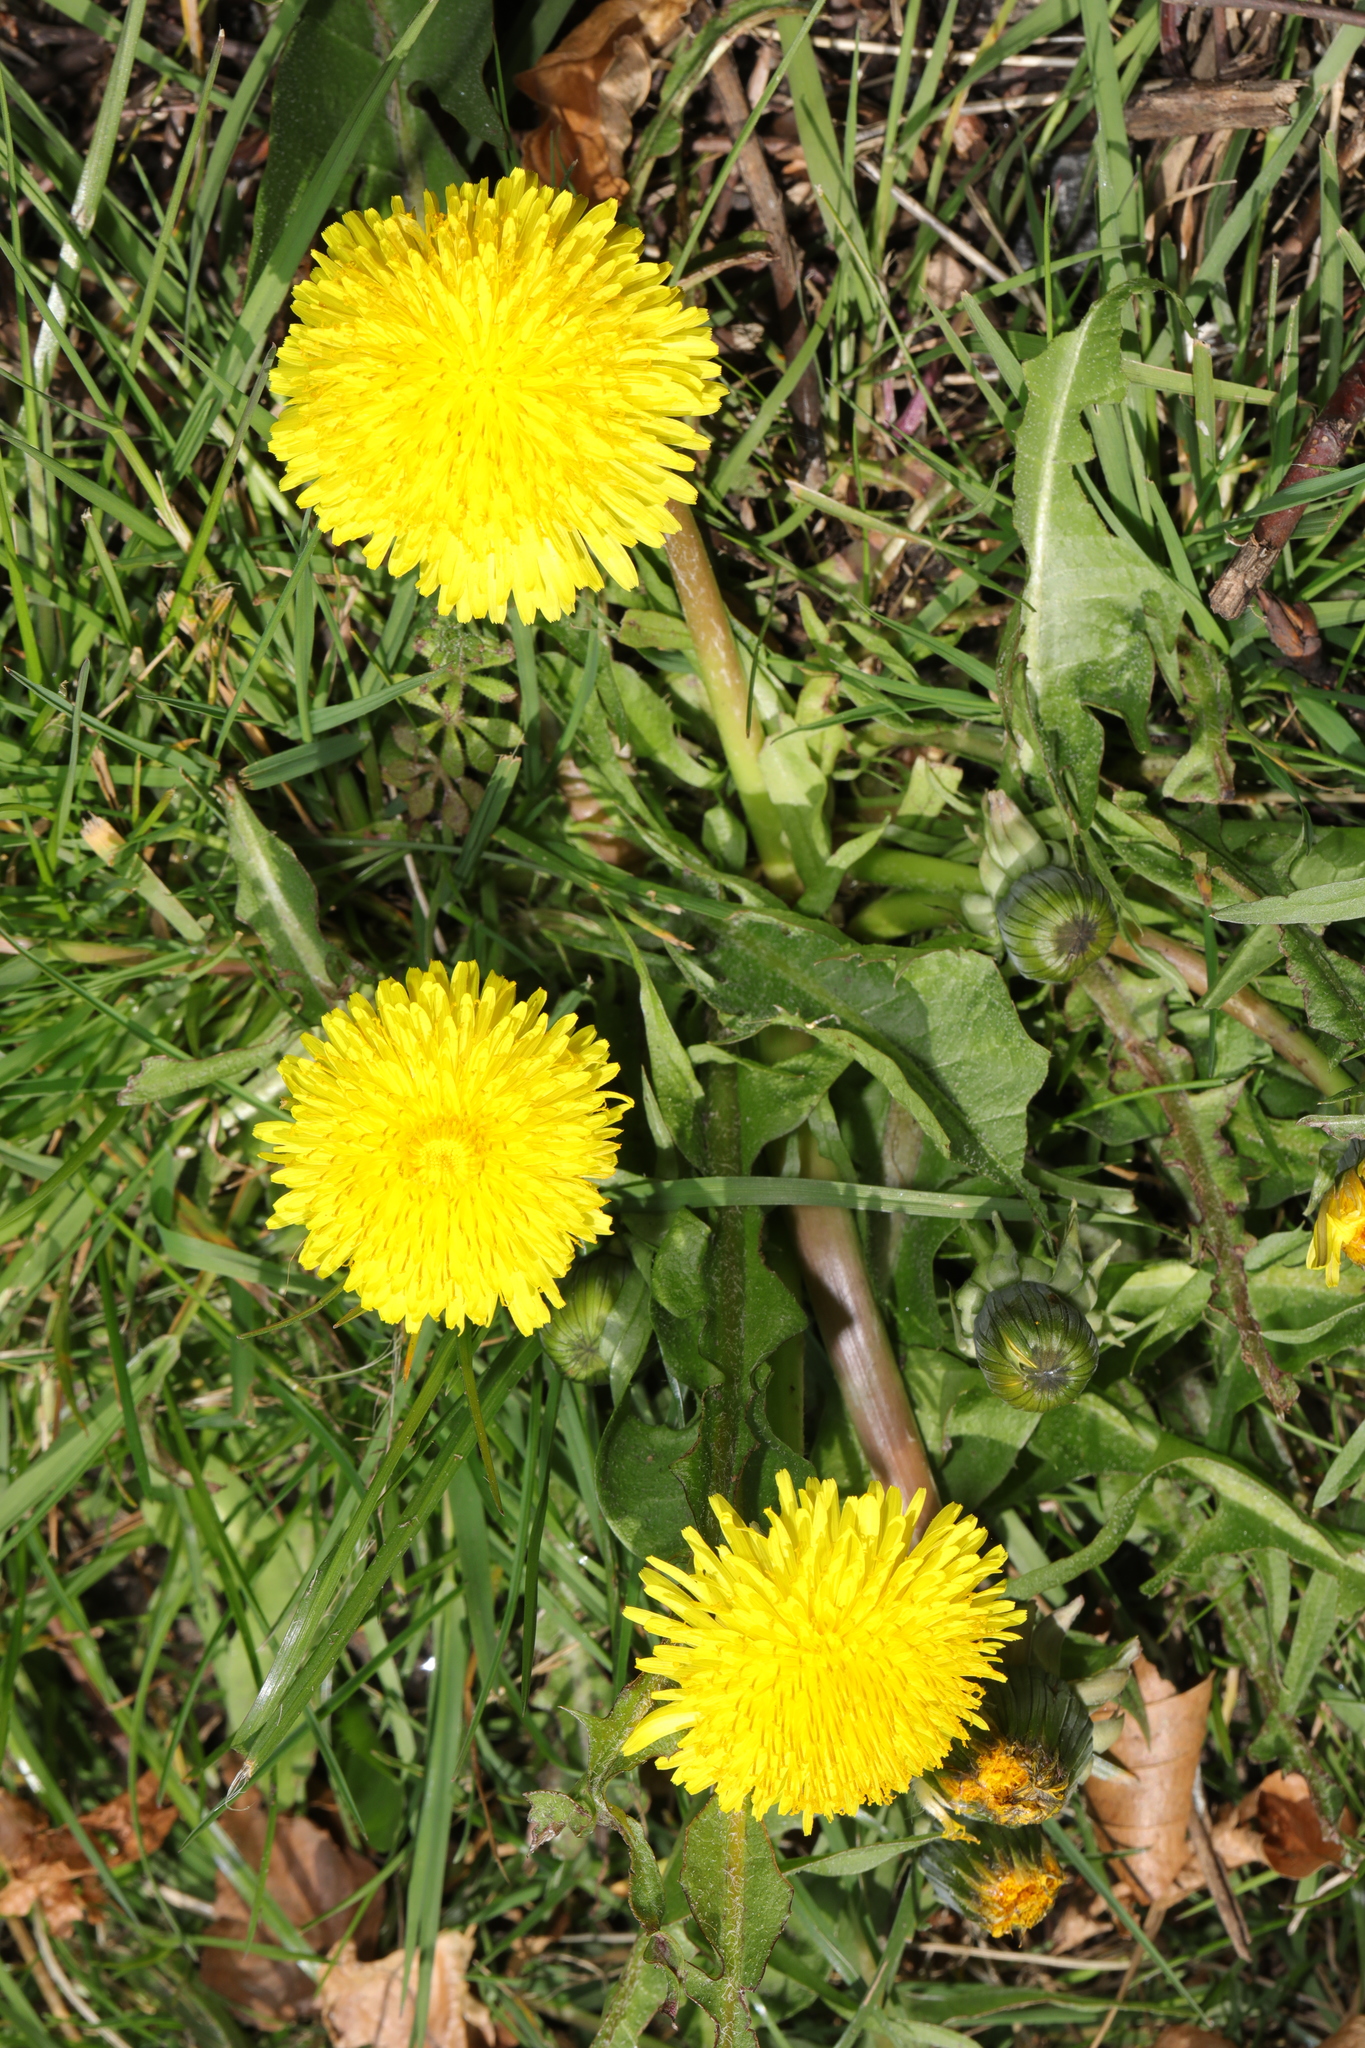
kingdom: Plantae
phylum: Tracheophyta
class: Magnoliopsida
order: Asterales
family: Asteraceae
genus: Taraxacum
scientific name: Taraxacum officinale
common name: Common dandelion
